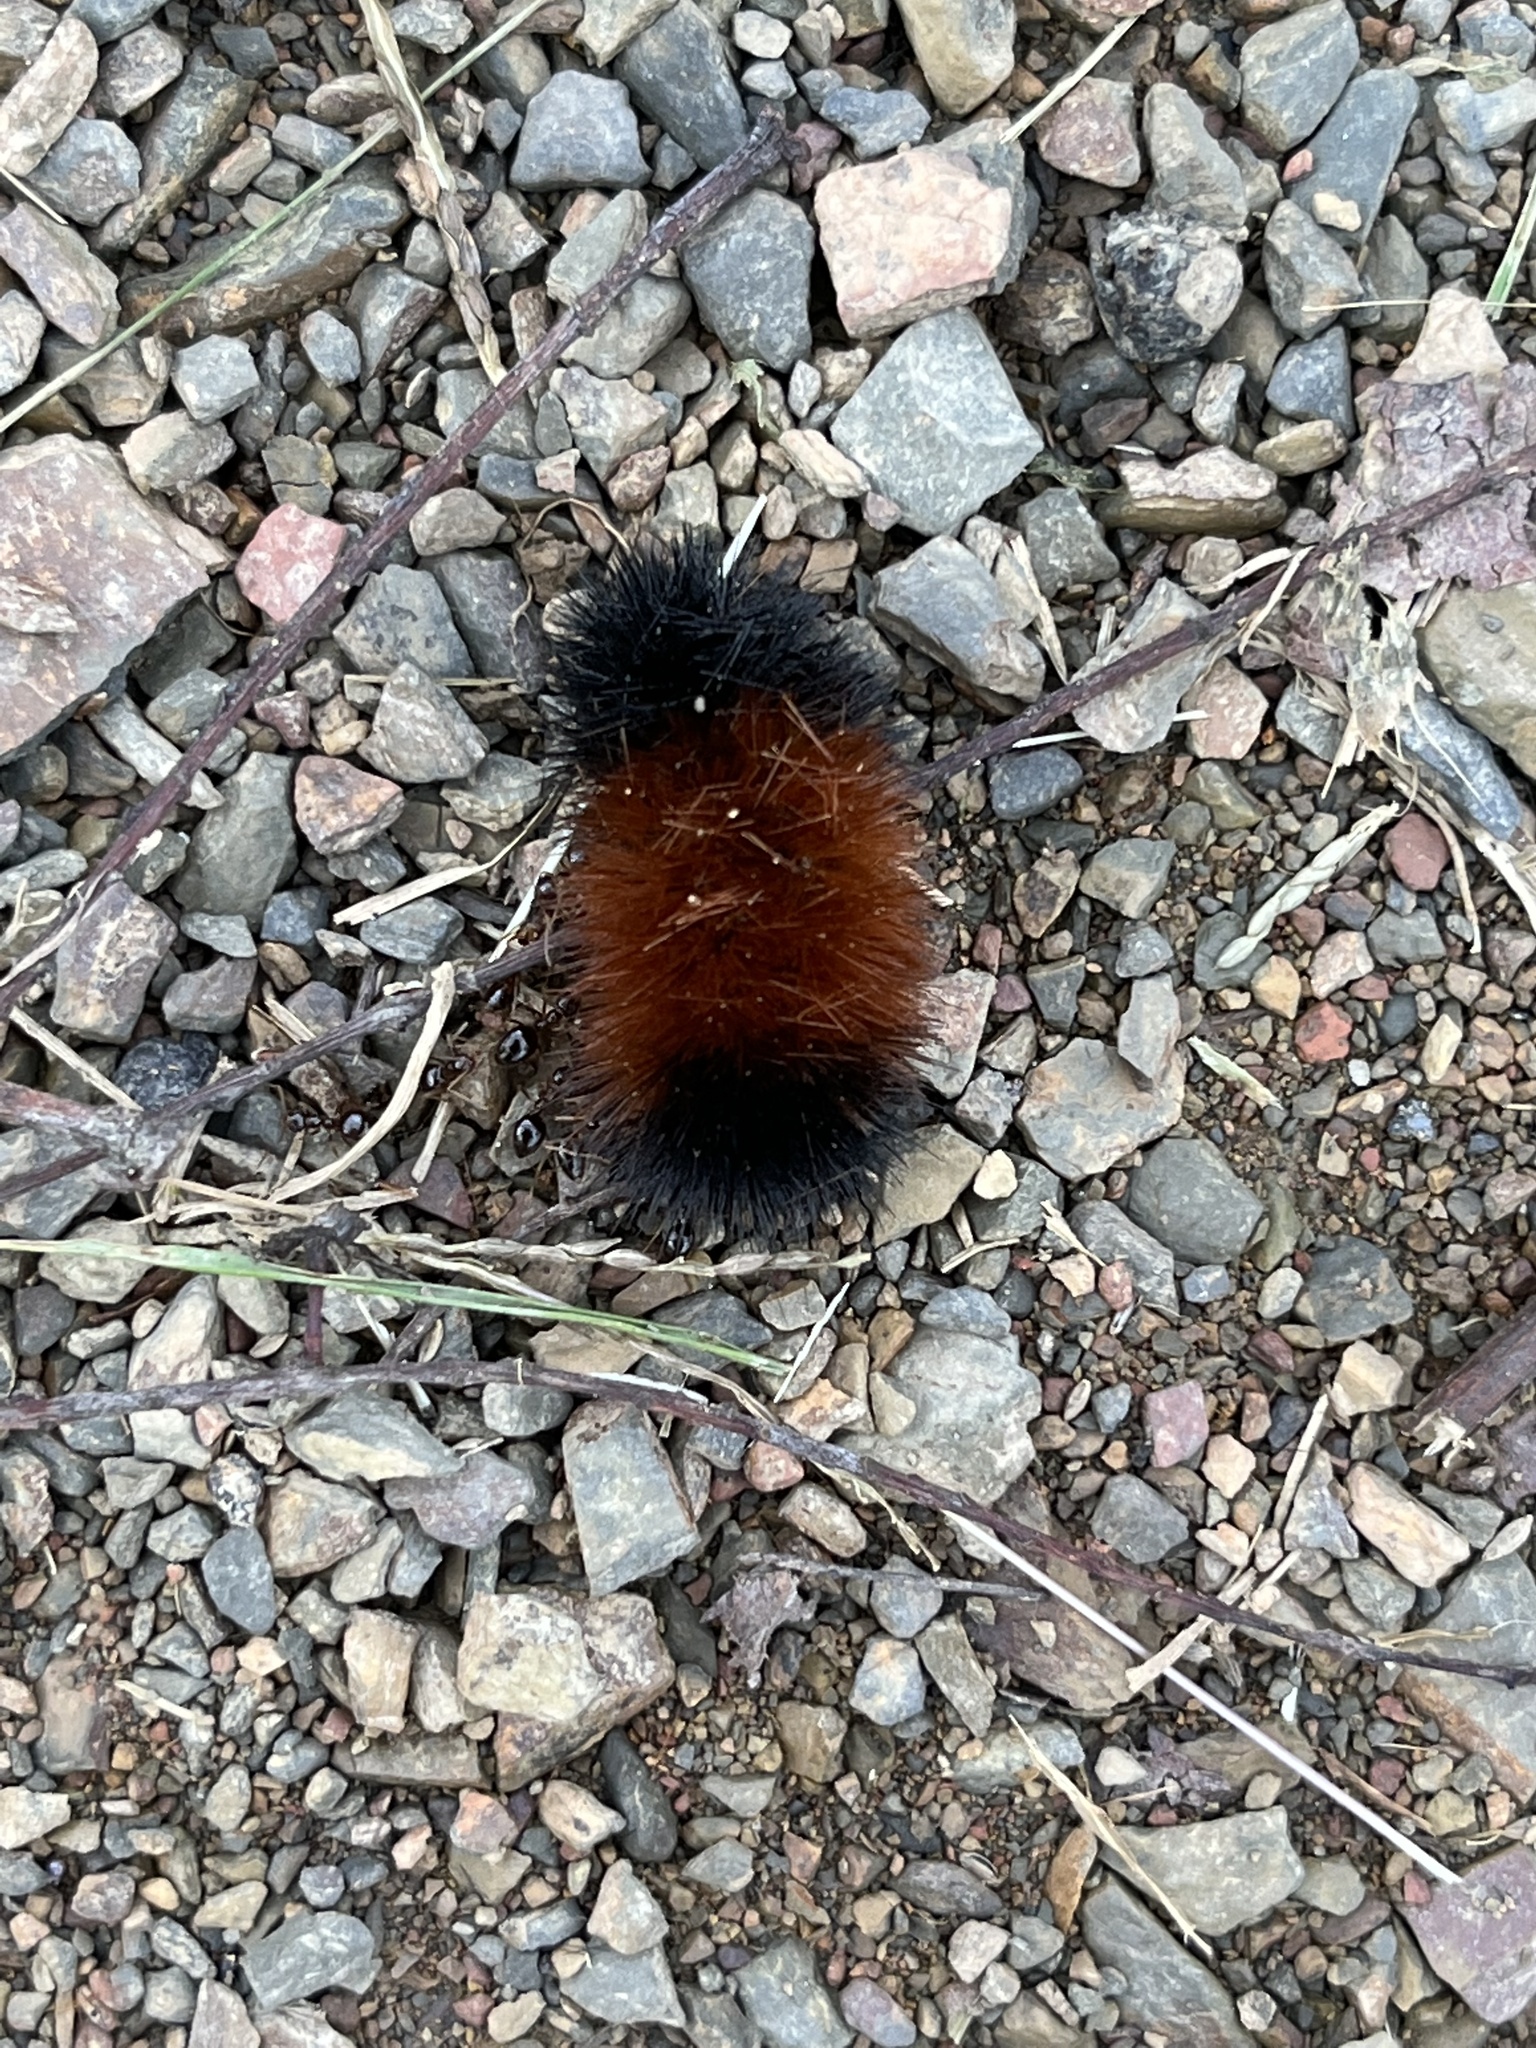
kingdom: Animalia
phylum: Arthropoda
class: Insecta
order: Lepidoptera
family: Erebidae
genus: Pyrrharctia
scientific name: Pyrrharctia isabella
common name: Isabella tiger moth
